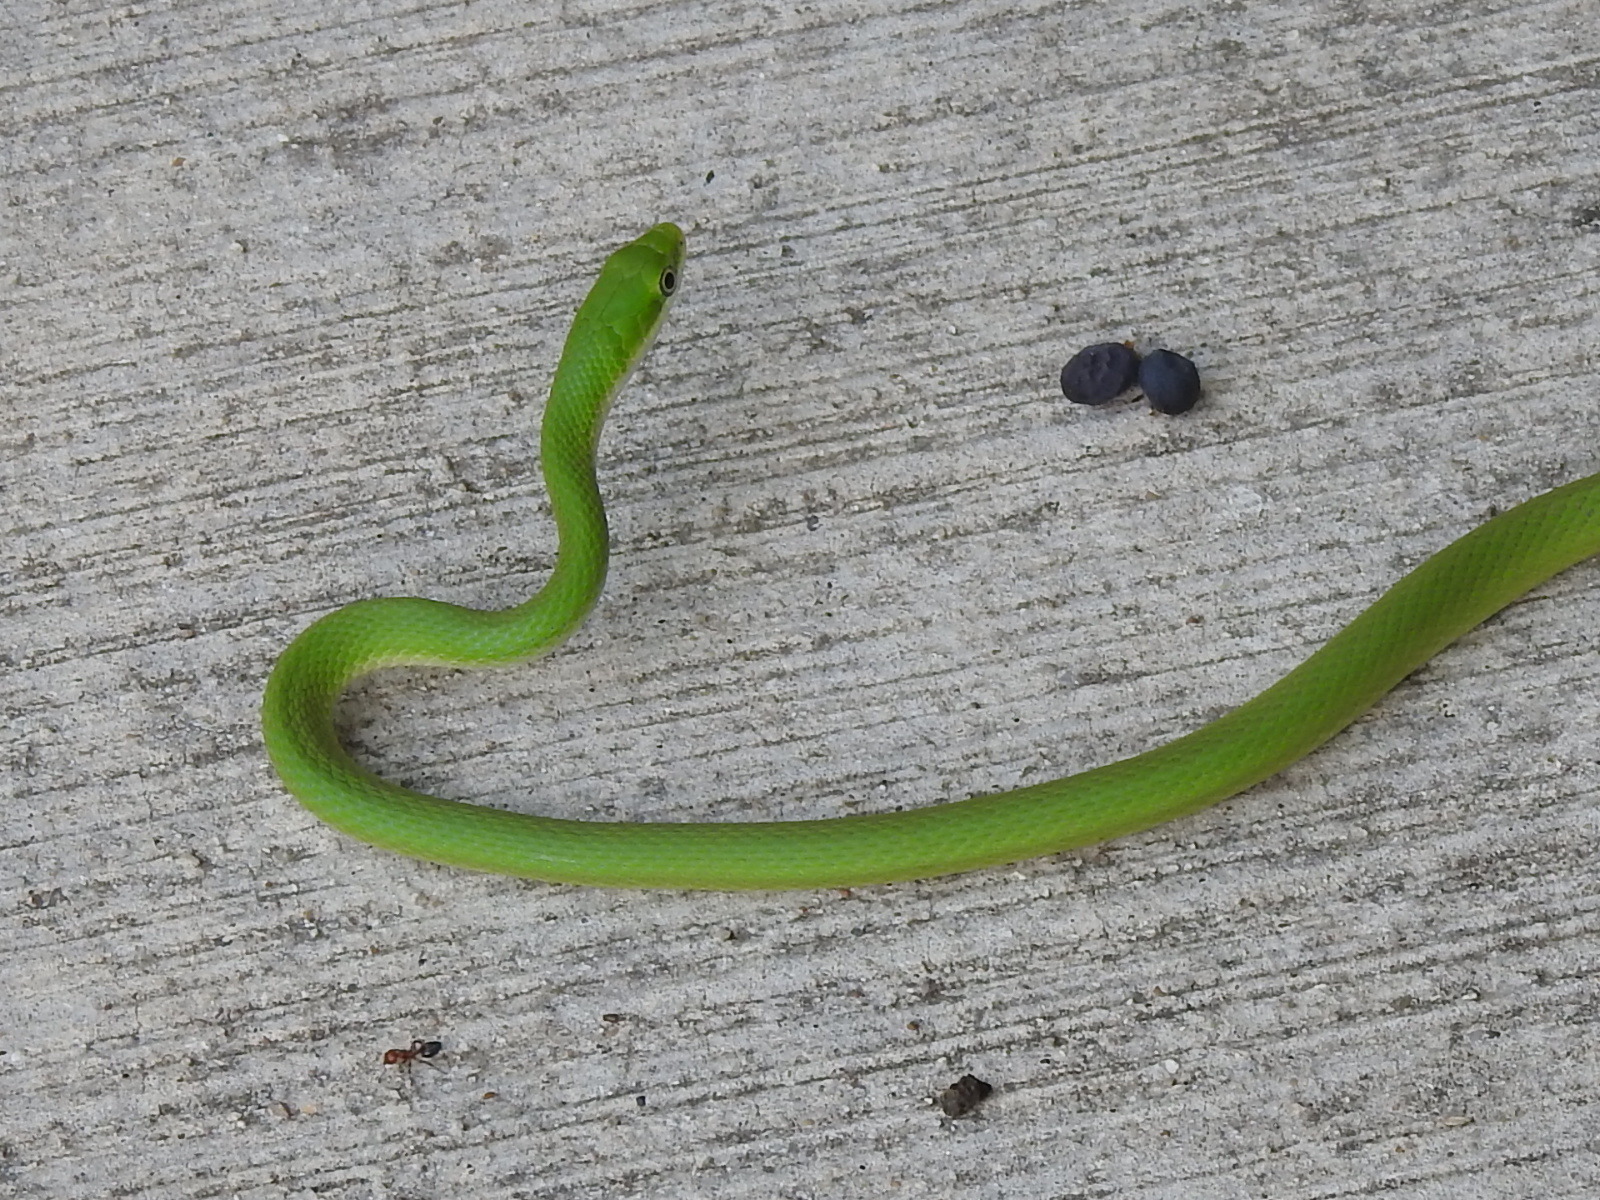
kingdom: Animalia
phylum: Chordata
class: Squamata
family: Colubridae
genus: Opheodrys
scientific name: Opheodrys aestivus
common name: Rough greensnake
